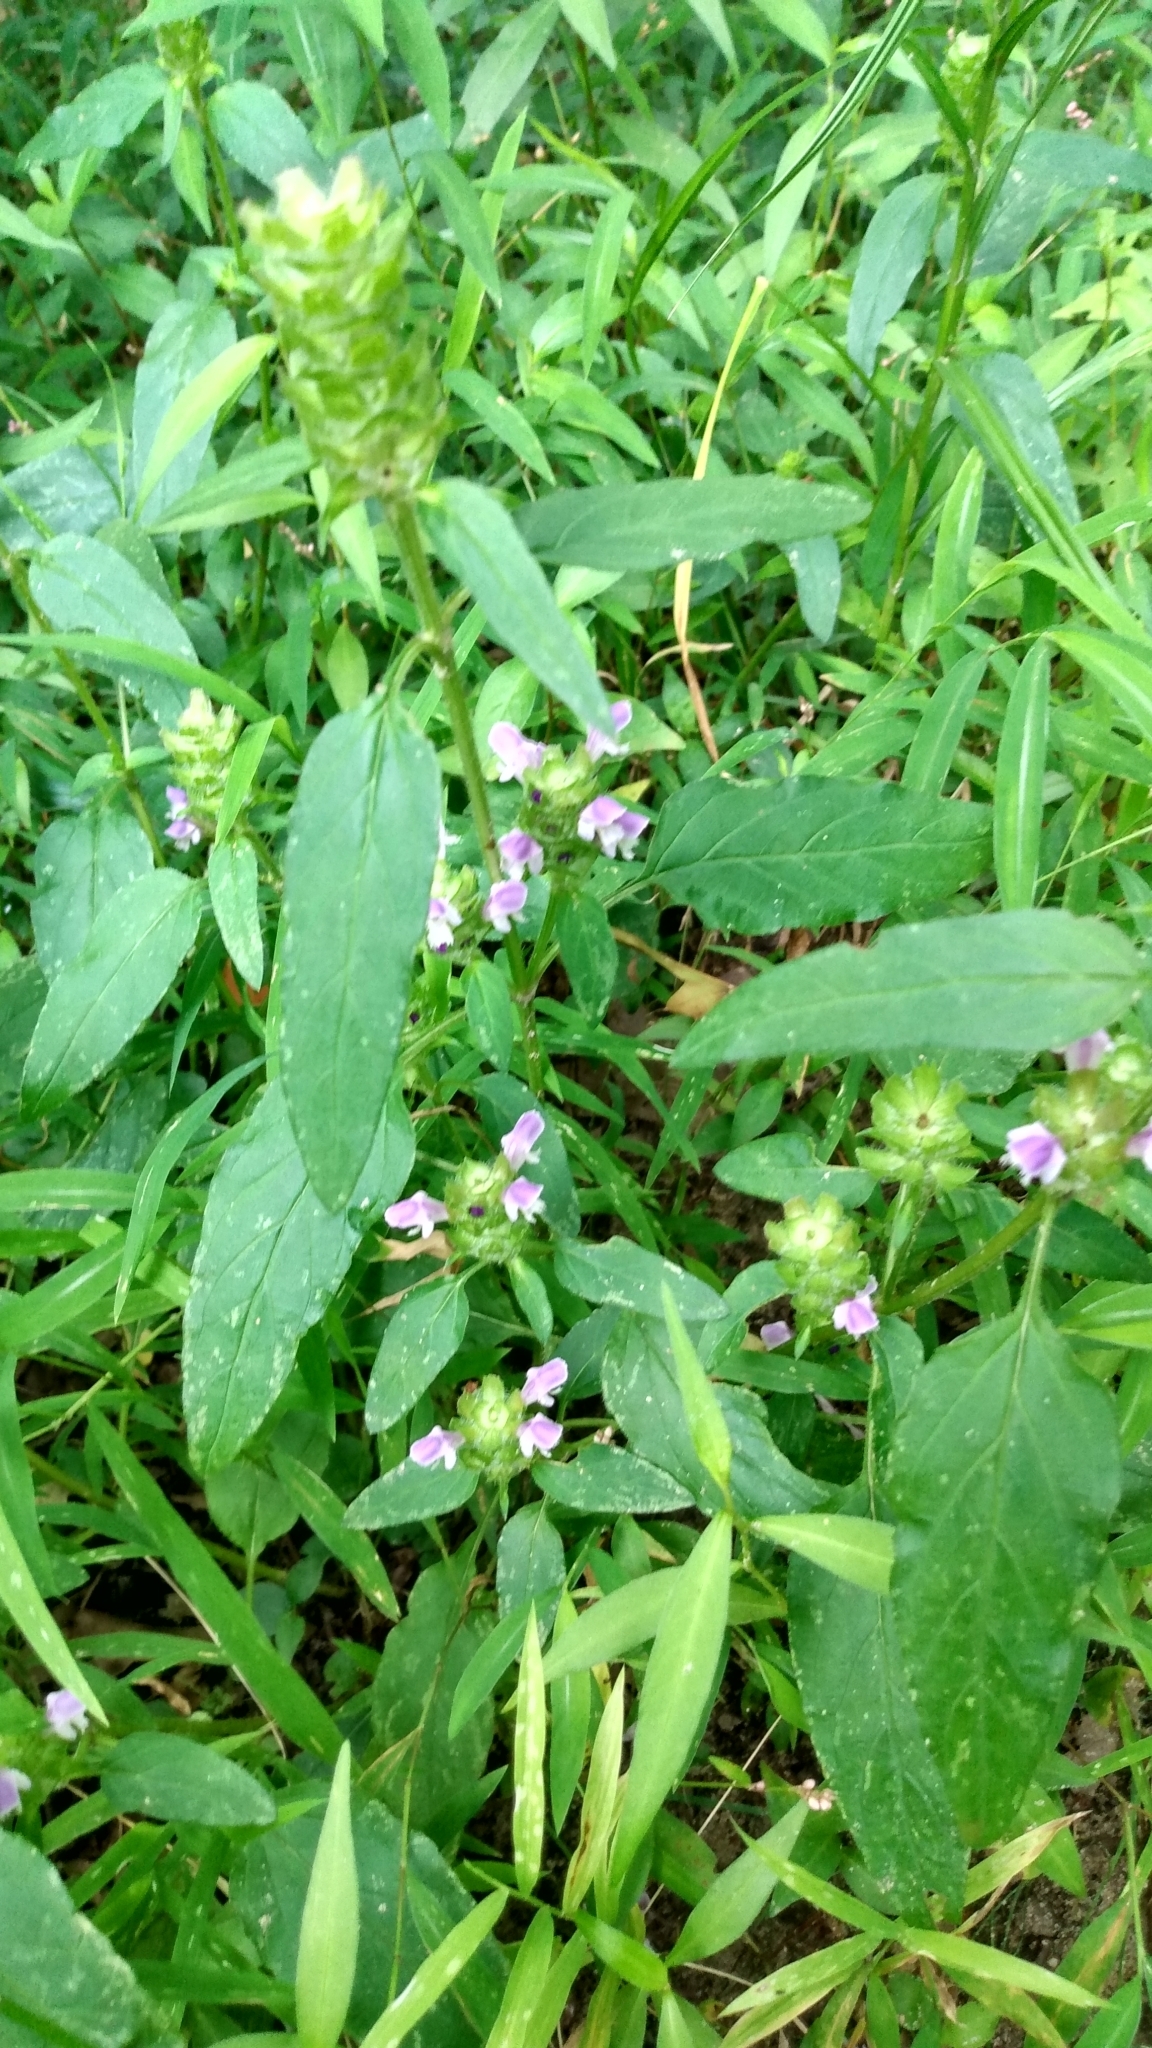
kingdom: Plantae
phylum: Tracheophyta
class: Magnoliopsida
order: Lamiales
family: Lamiaceae
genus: Prunella
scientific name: Prunella vulgaris
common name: Heal-all
